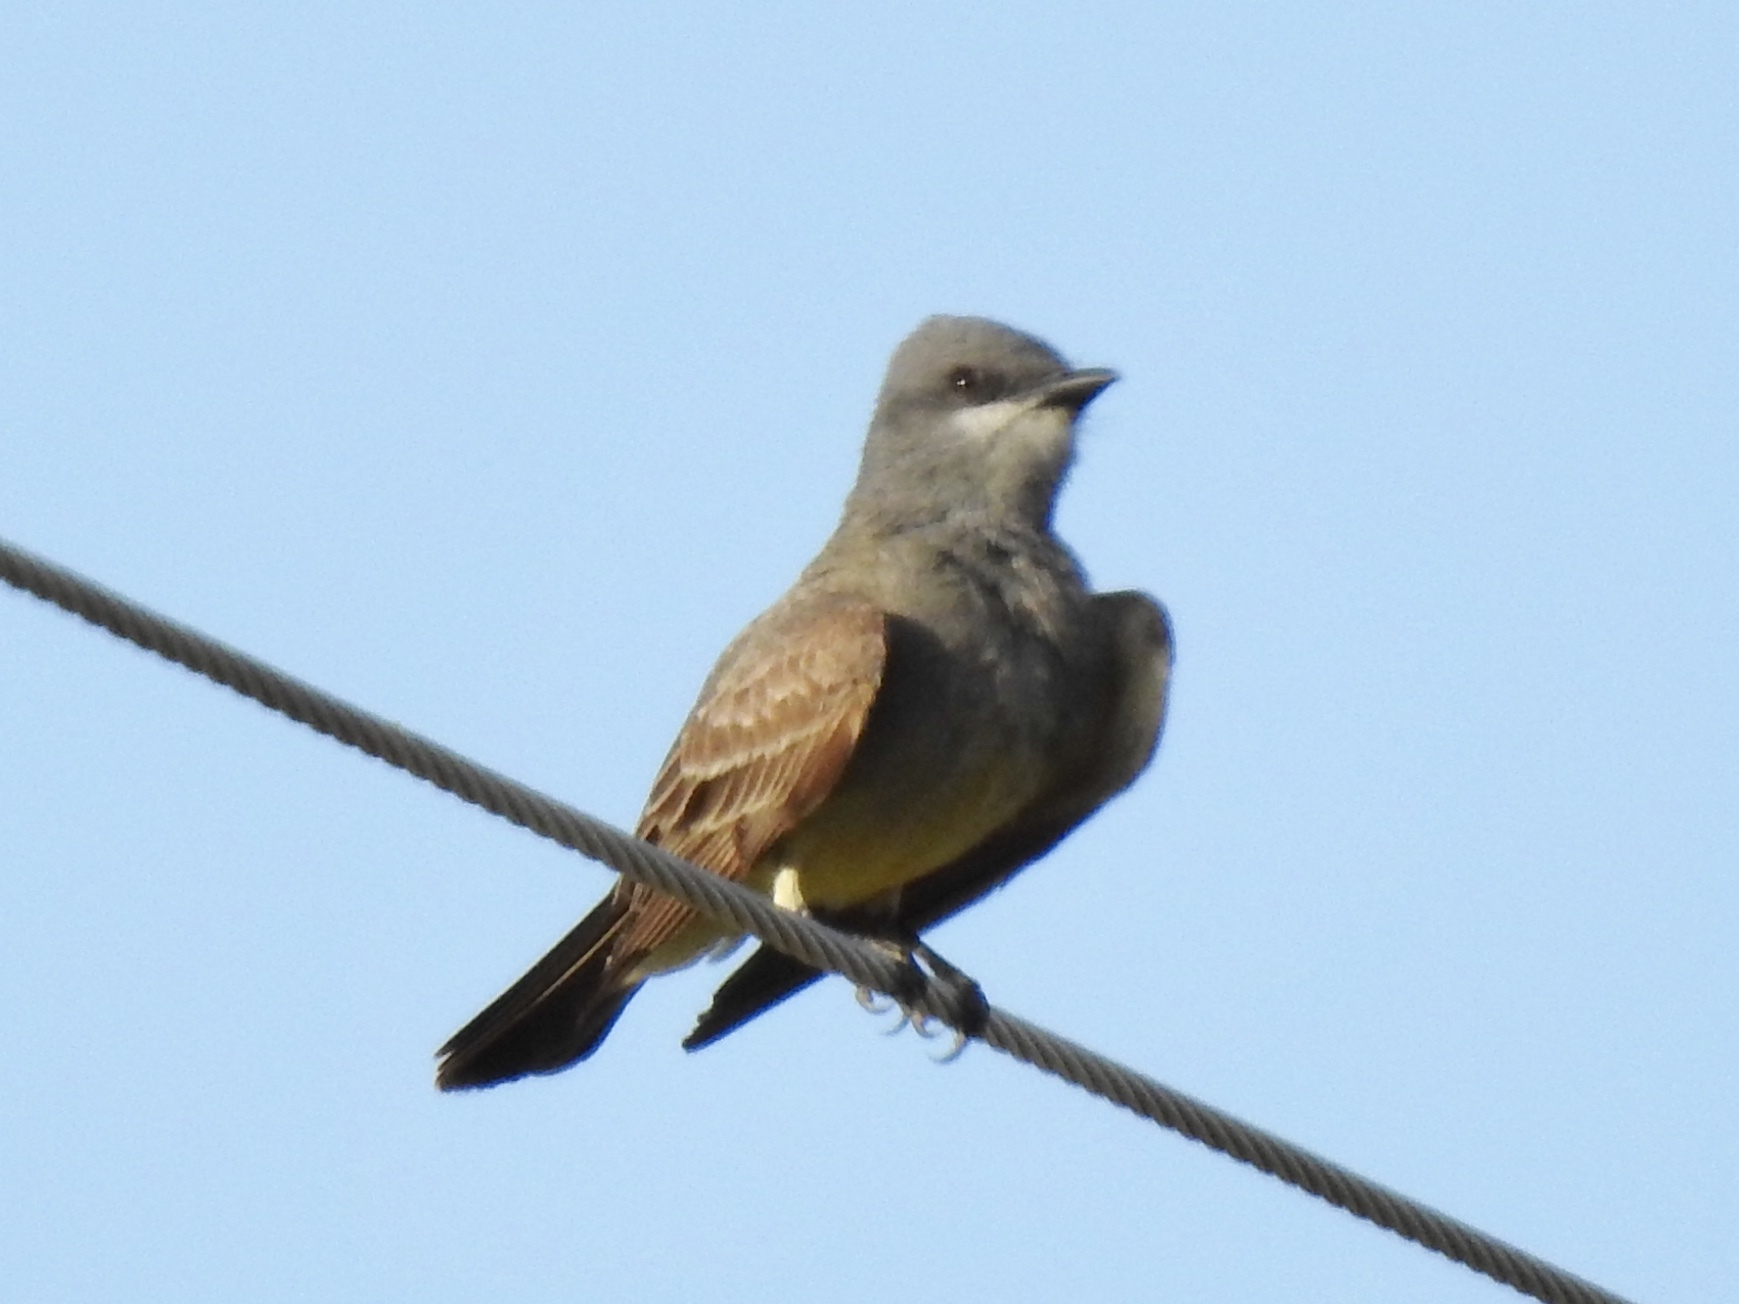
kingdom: Animalia
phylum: Chordata
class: Aves
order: Passeriformes
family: Tyrannidae
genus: Tyrannus
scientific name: Tyrannus vociferans
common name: Cassin's kingbird
